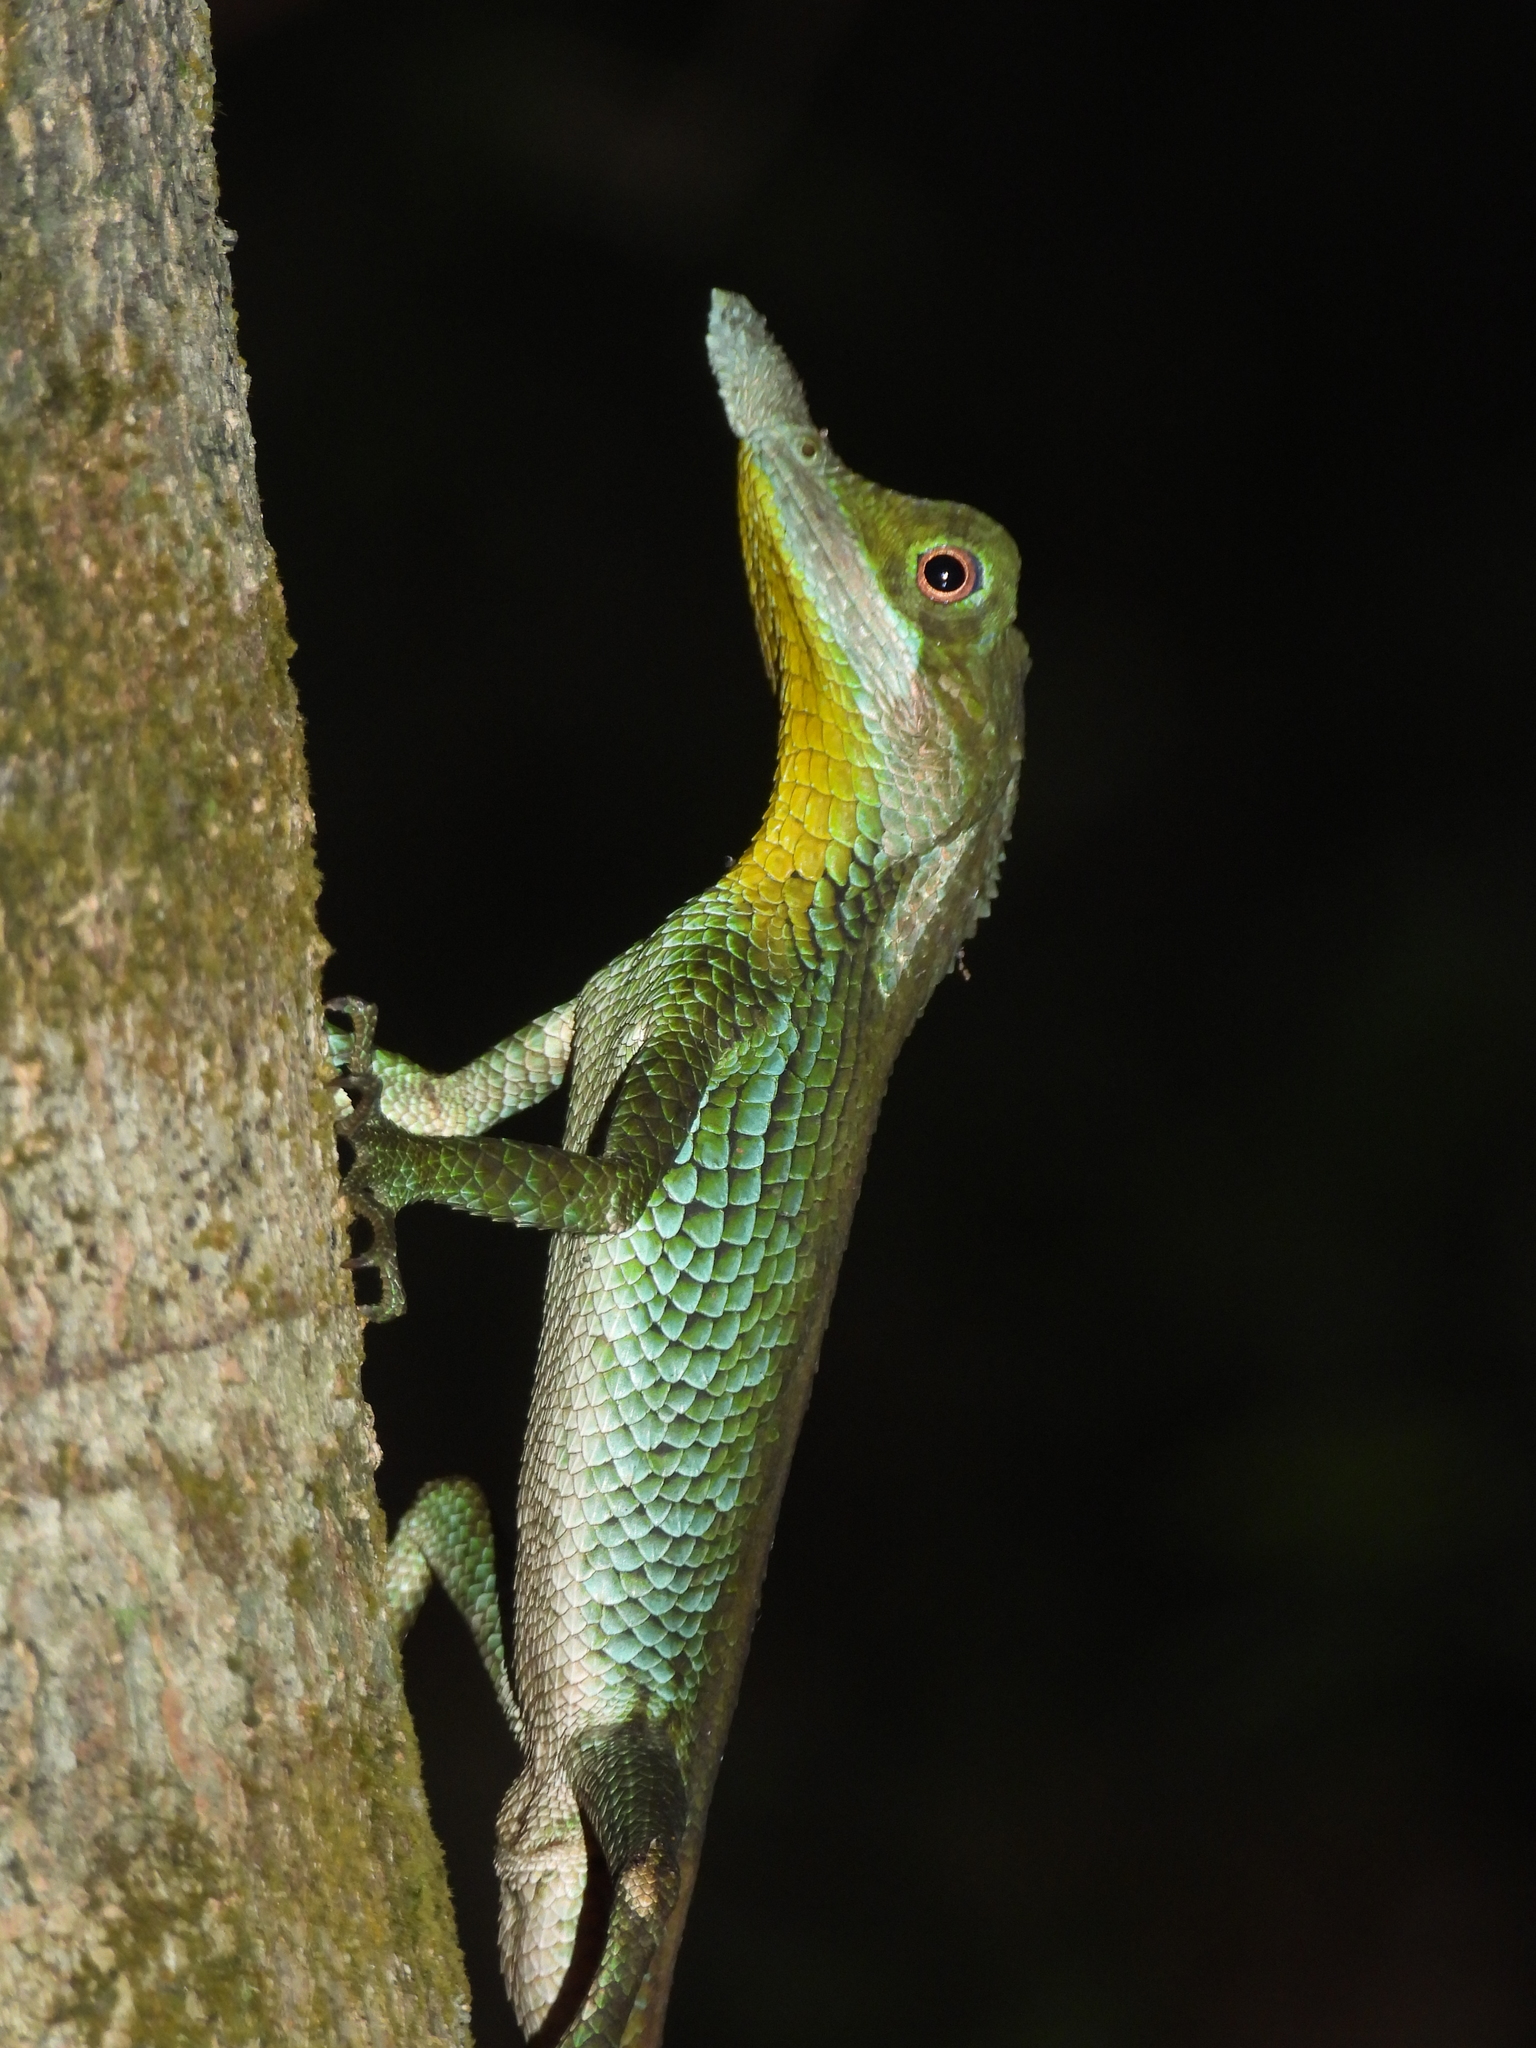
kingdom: Animalia
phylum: Chordata
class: Squamata
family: Agamidae
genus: Ceratophora
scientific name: Ceratophora tennentii
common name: Rhinoceros agama
